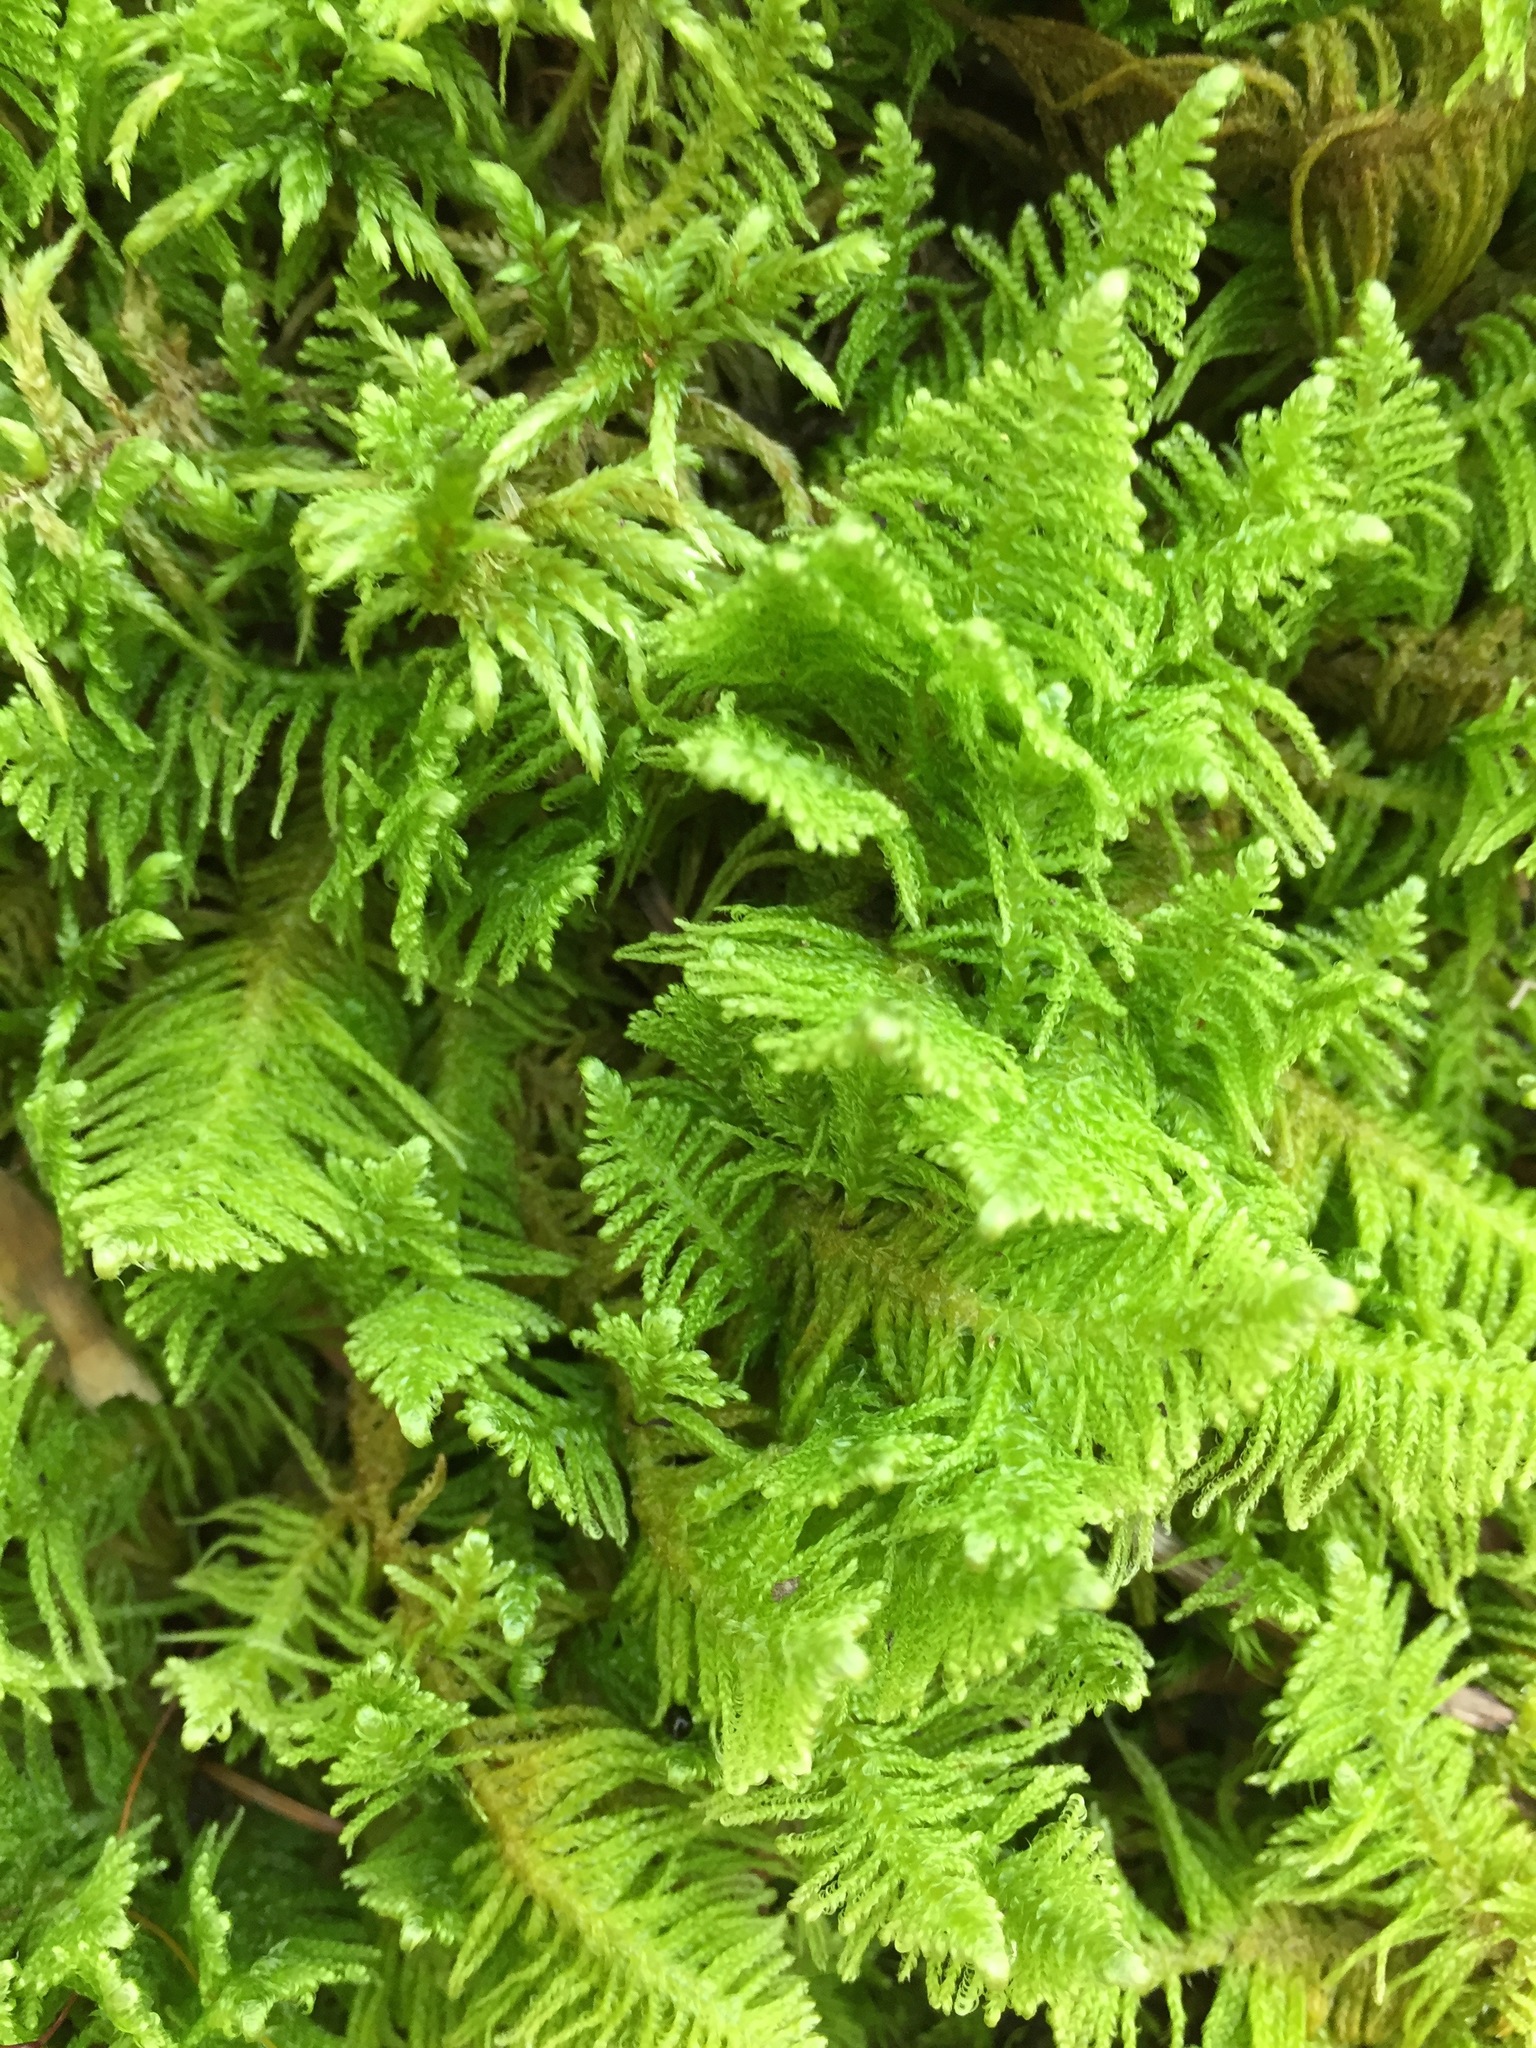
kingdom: Plantae
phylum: Bryophyta
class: Bryopsida
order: Hypnales
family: Pylaisiaceae
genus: Ptilium
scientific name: Ptilium crista-castrensis
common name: Knight's plume moss
